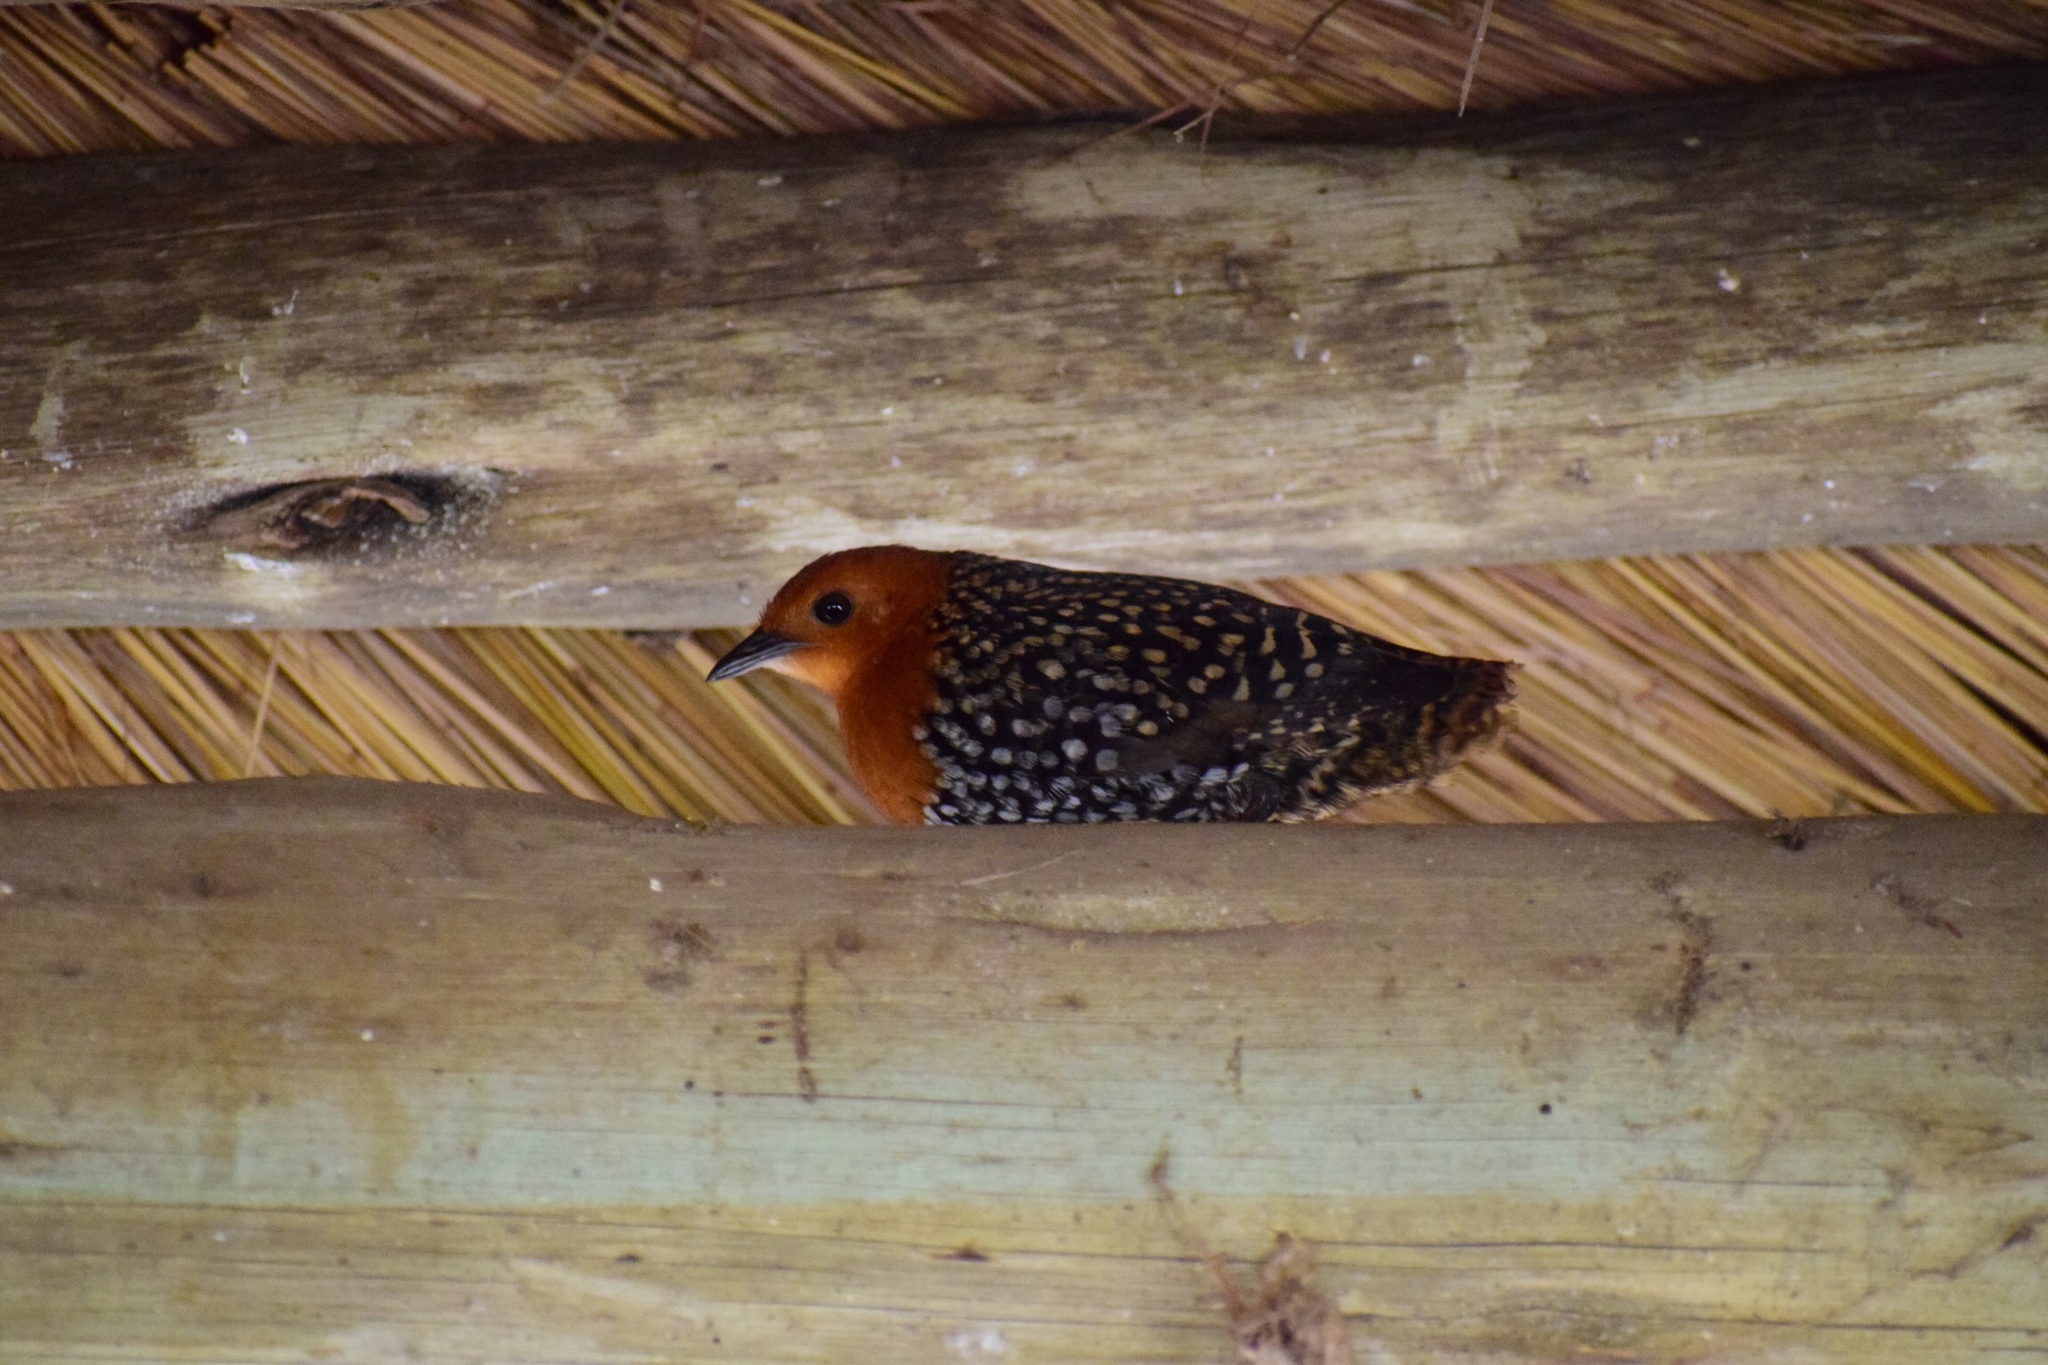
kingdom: Animalia
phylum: Chordata
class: Aves
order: Gruiformes
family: Rallidae
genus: Sarothrura
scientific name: Sarothrura elegans
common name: Buff-spotted flufftail
